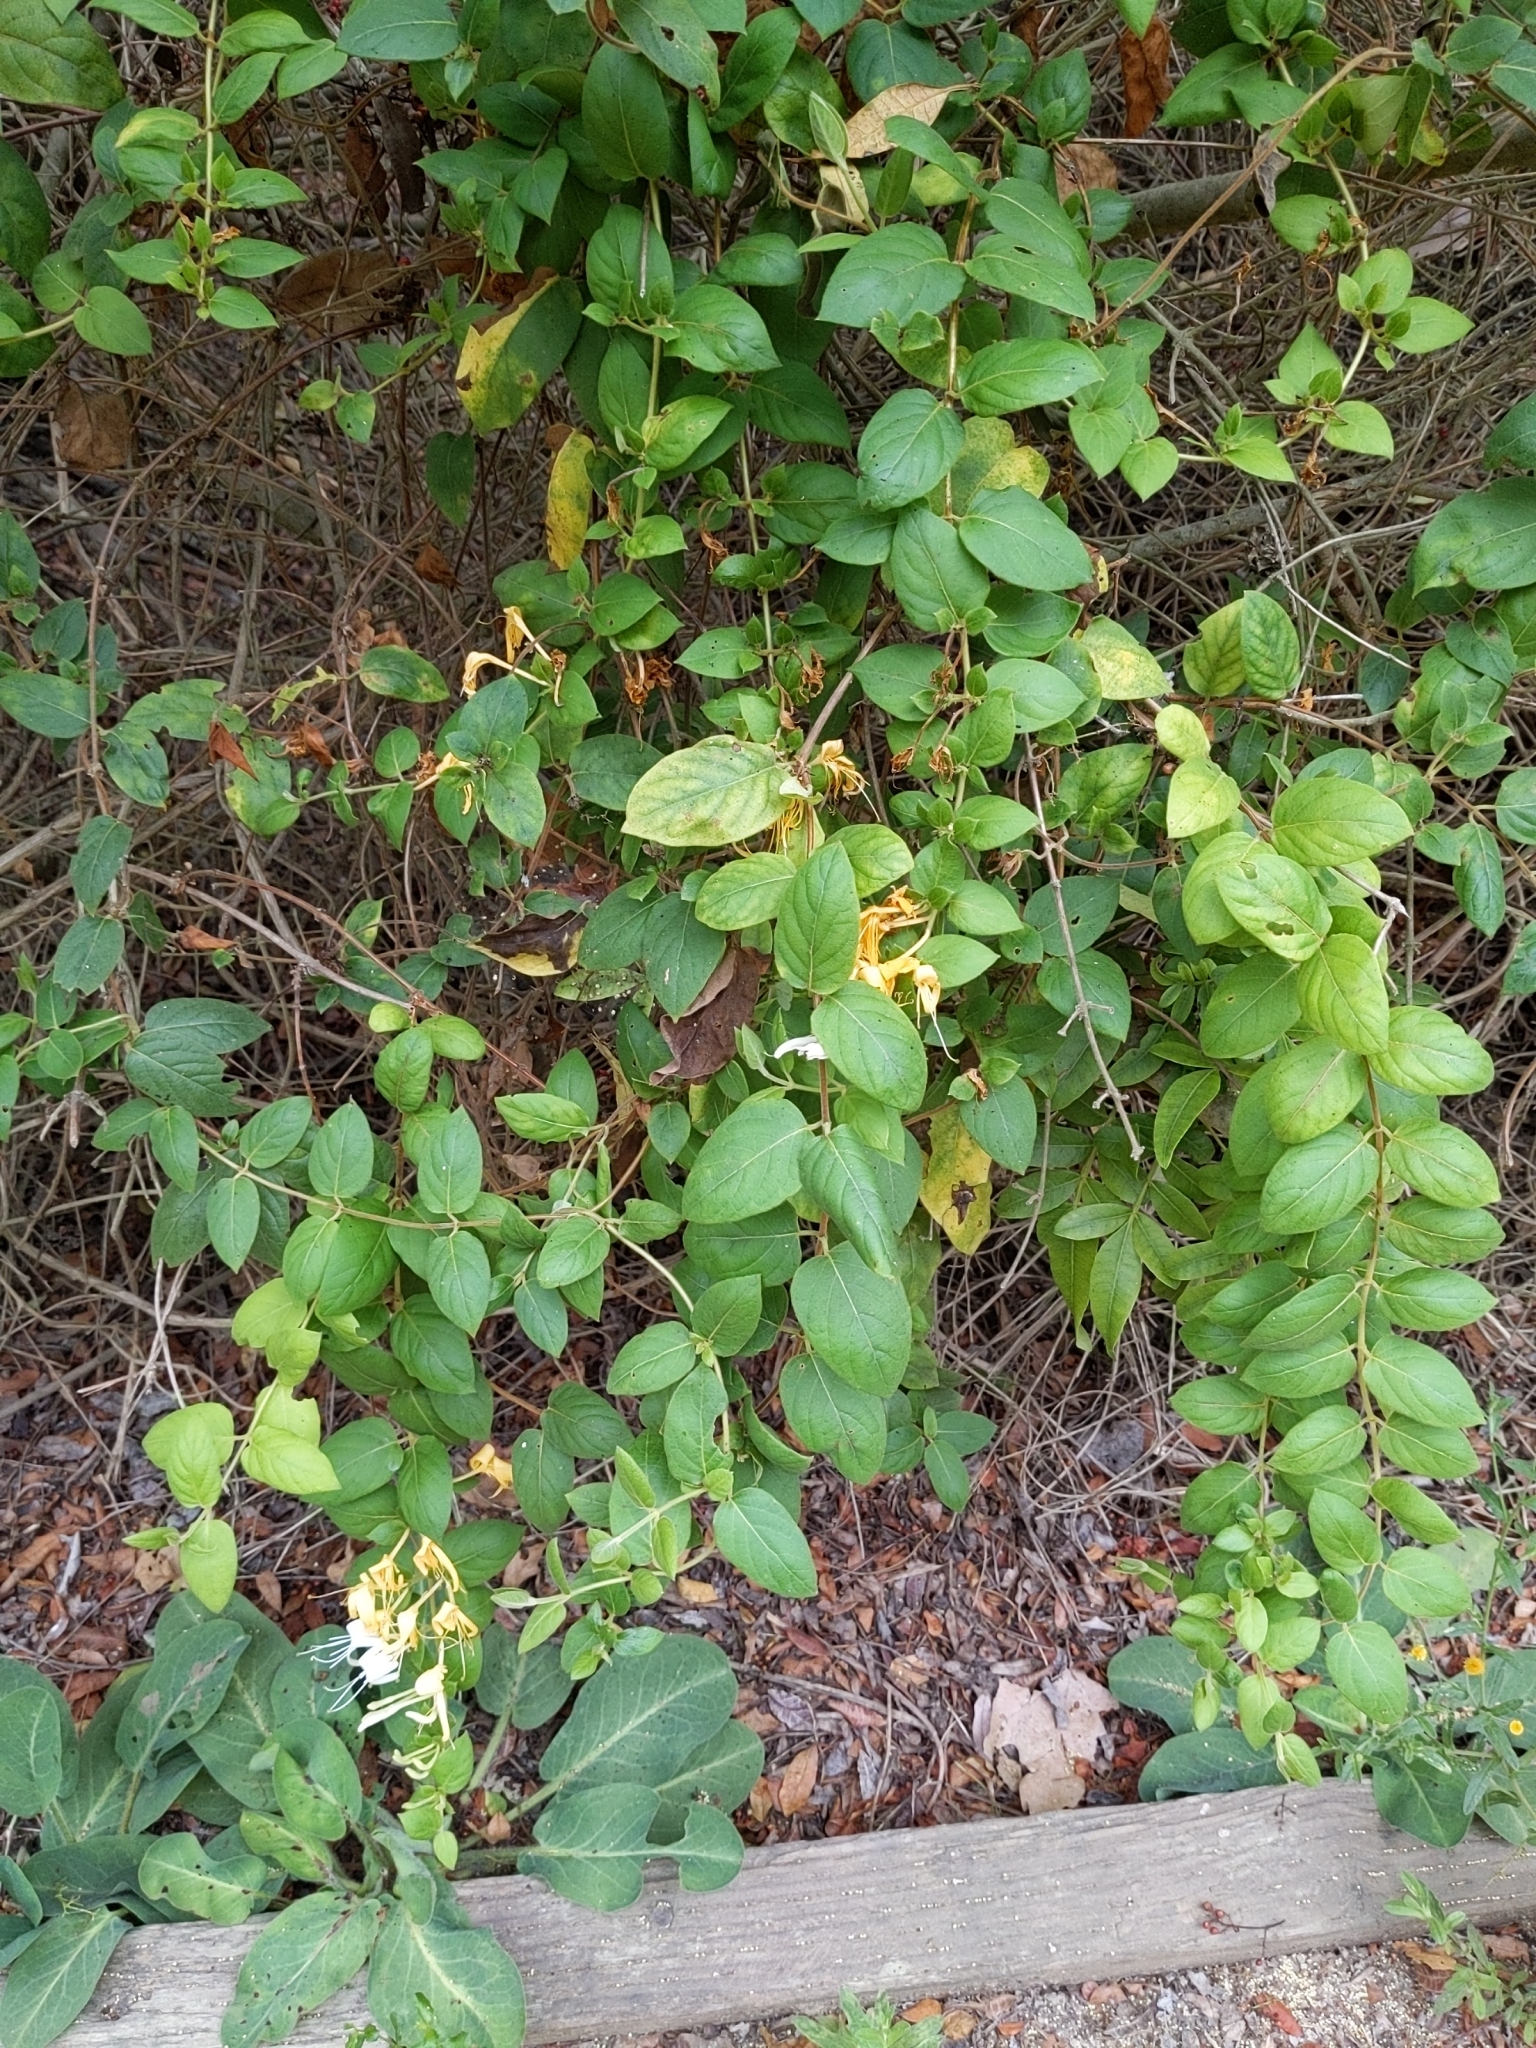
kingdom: Plantae
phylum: Tracheophyta
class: Magnoliopsida
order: Dipsacales
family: Caprifoliaceae
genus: Lonicera
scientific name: Lonicera japonica
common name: Japanese honeysuckle
